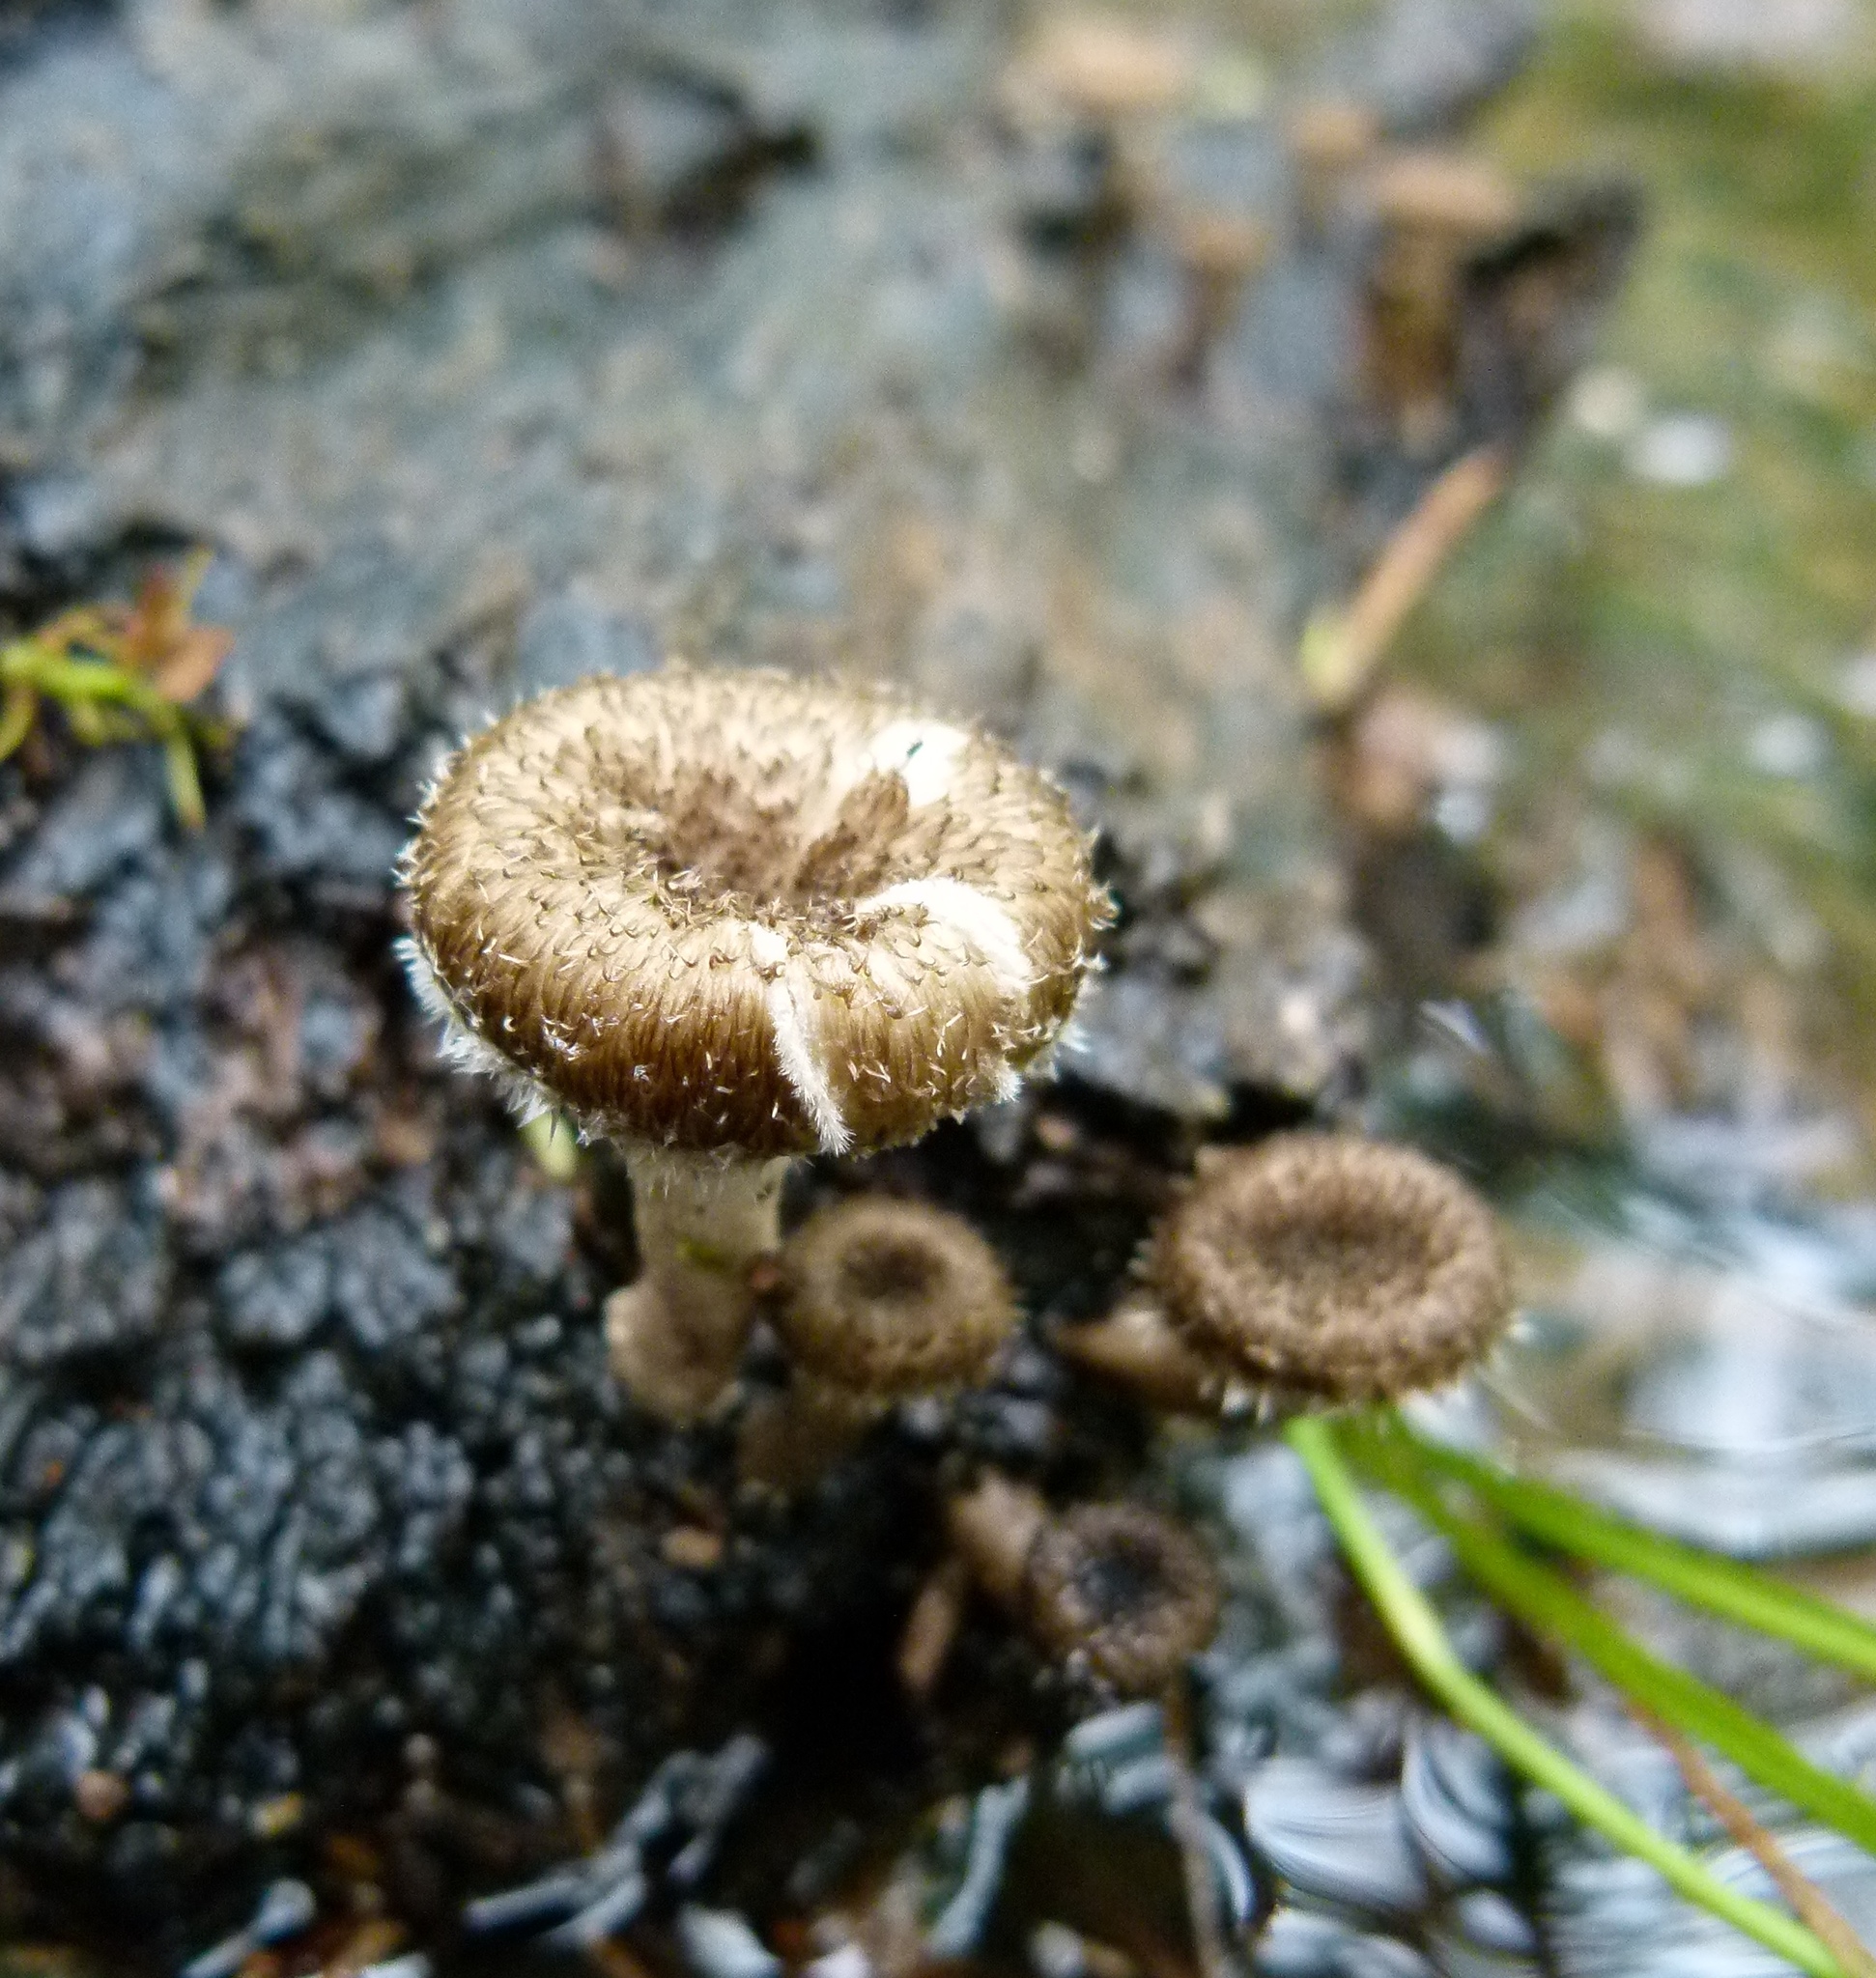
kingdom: Fungi
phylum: Basidiomycota
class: Agaricomycetes
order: Polyporales
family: Polyporaceae
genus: Lentinus
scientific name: Lentinus crinitus
